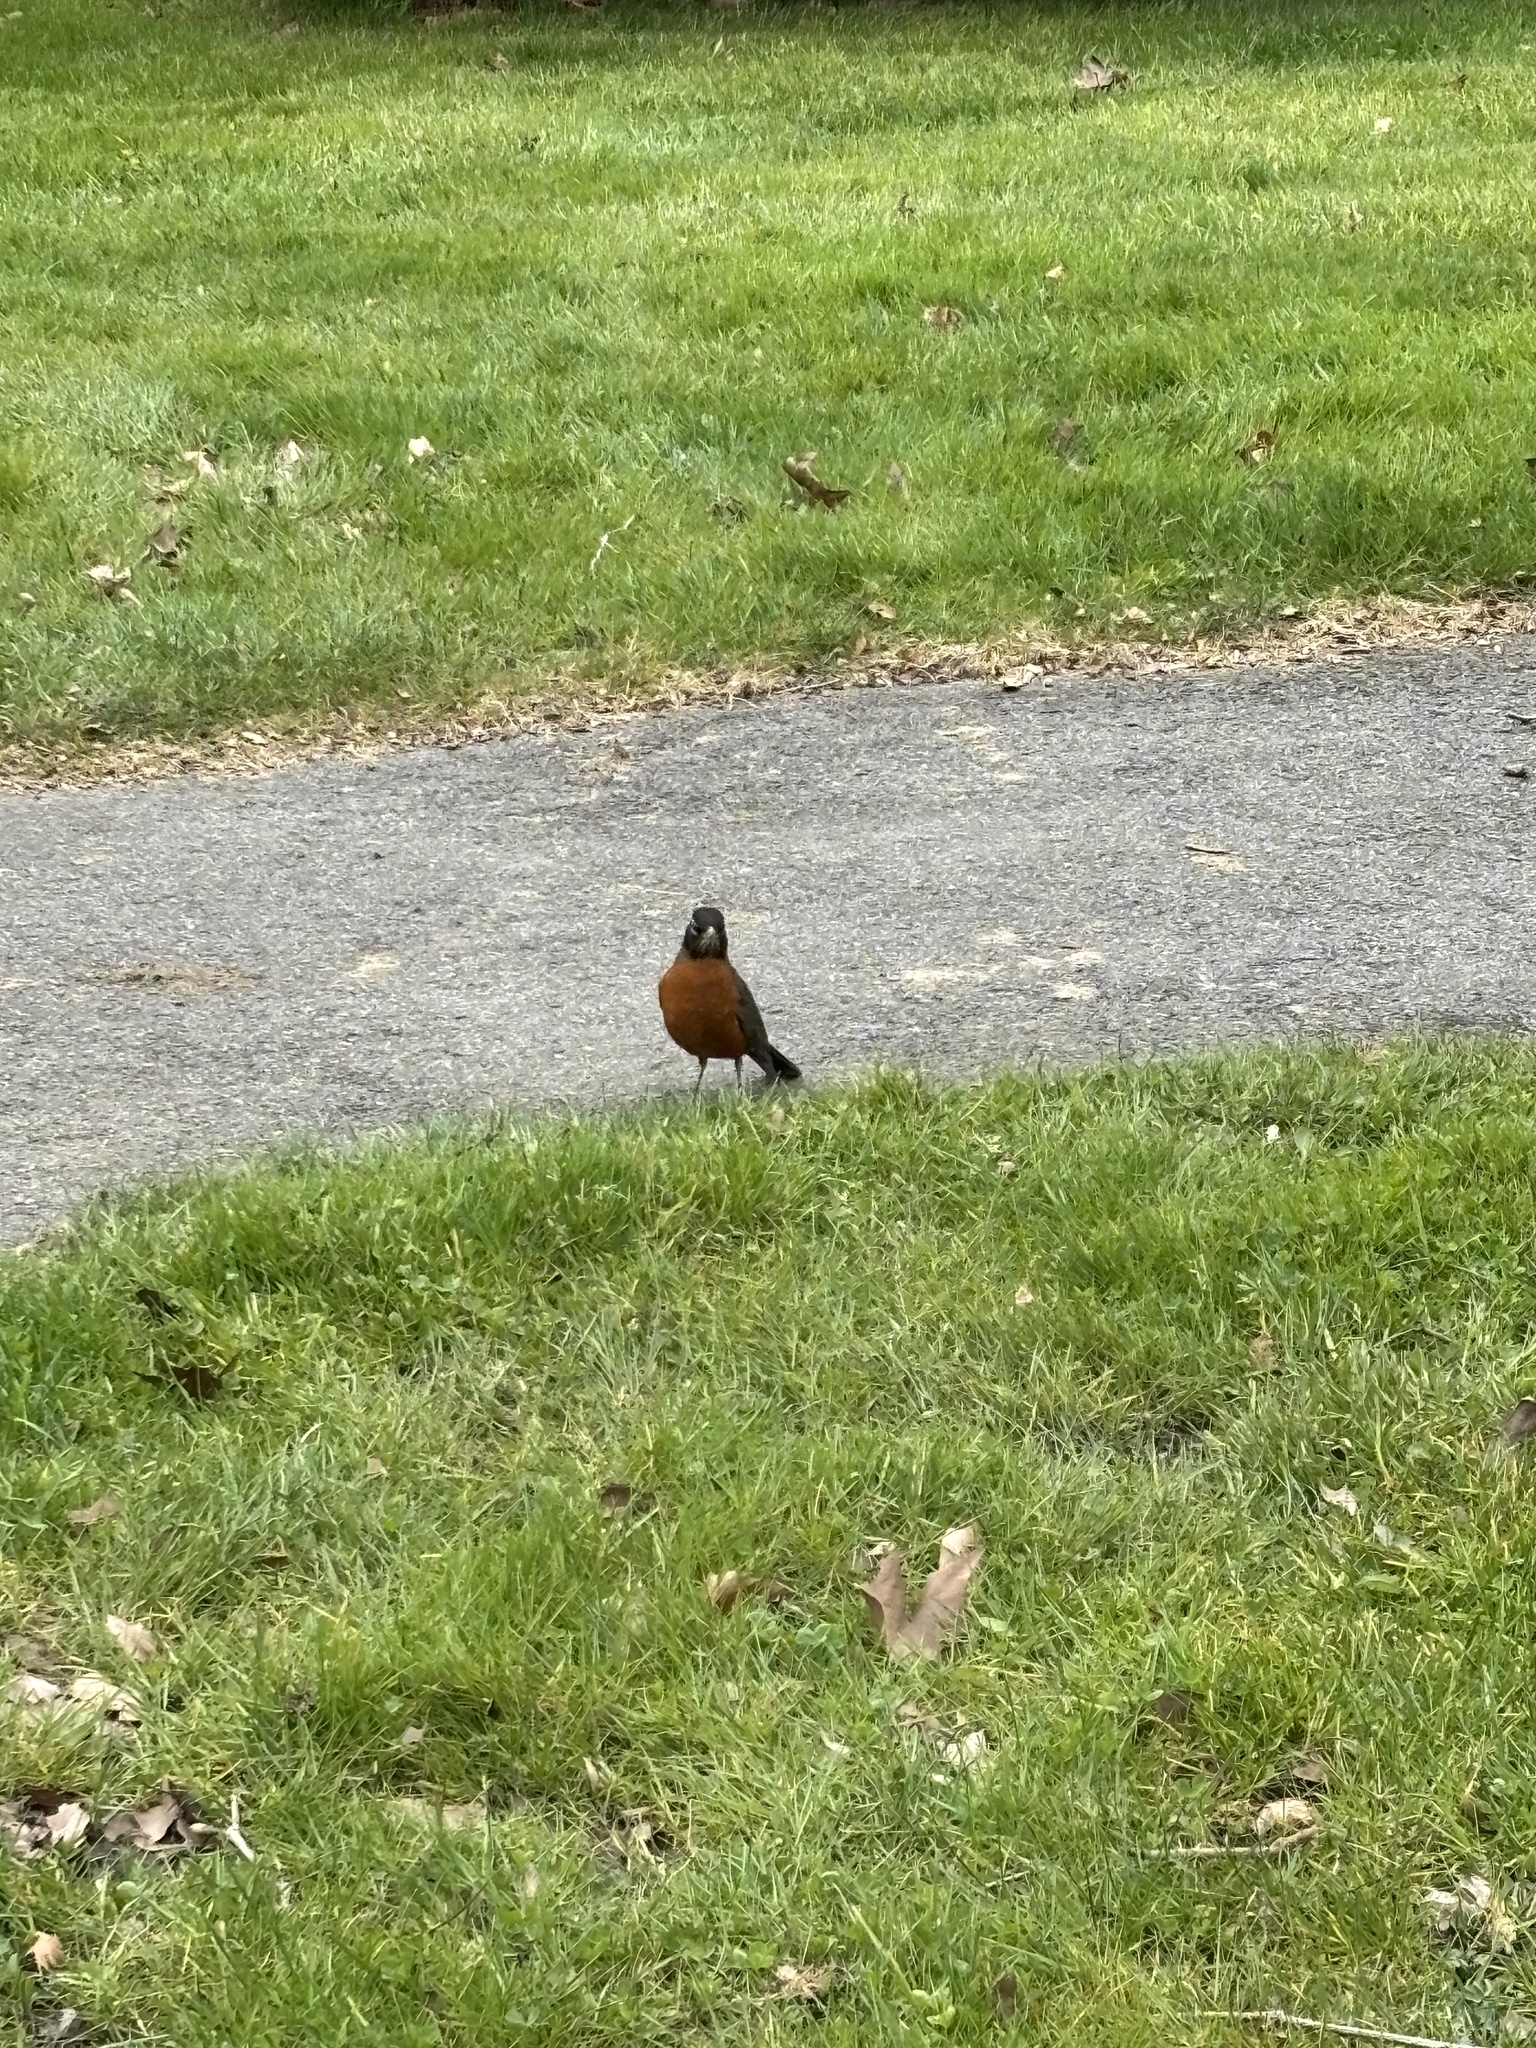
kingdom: Animalia
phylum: Chordata
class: Aves
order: Passeriformes
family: Turdidae
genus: Turdus
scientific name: Turdus migratorius
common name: American robin
